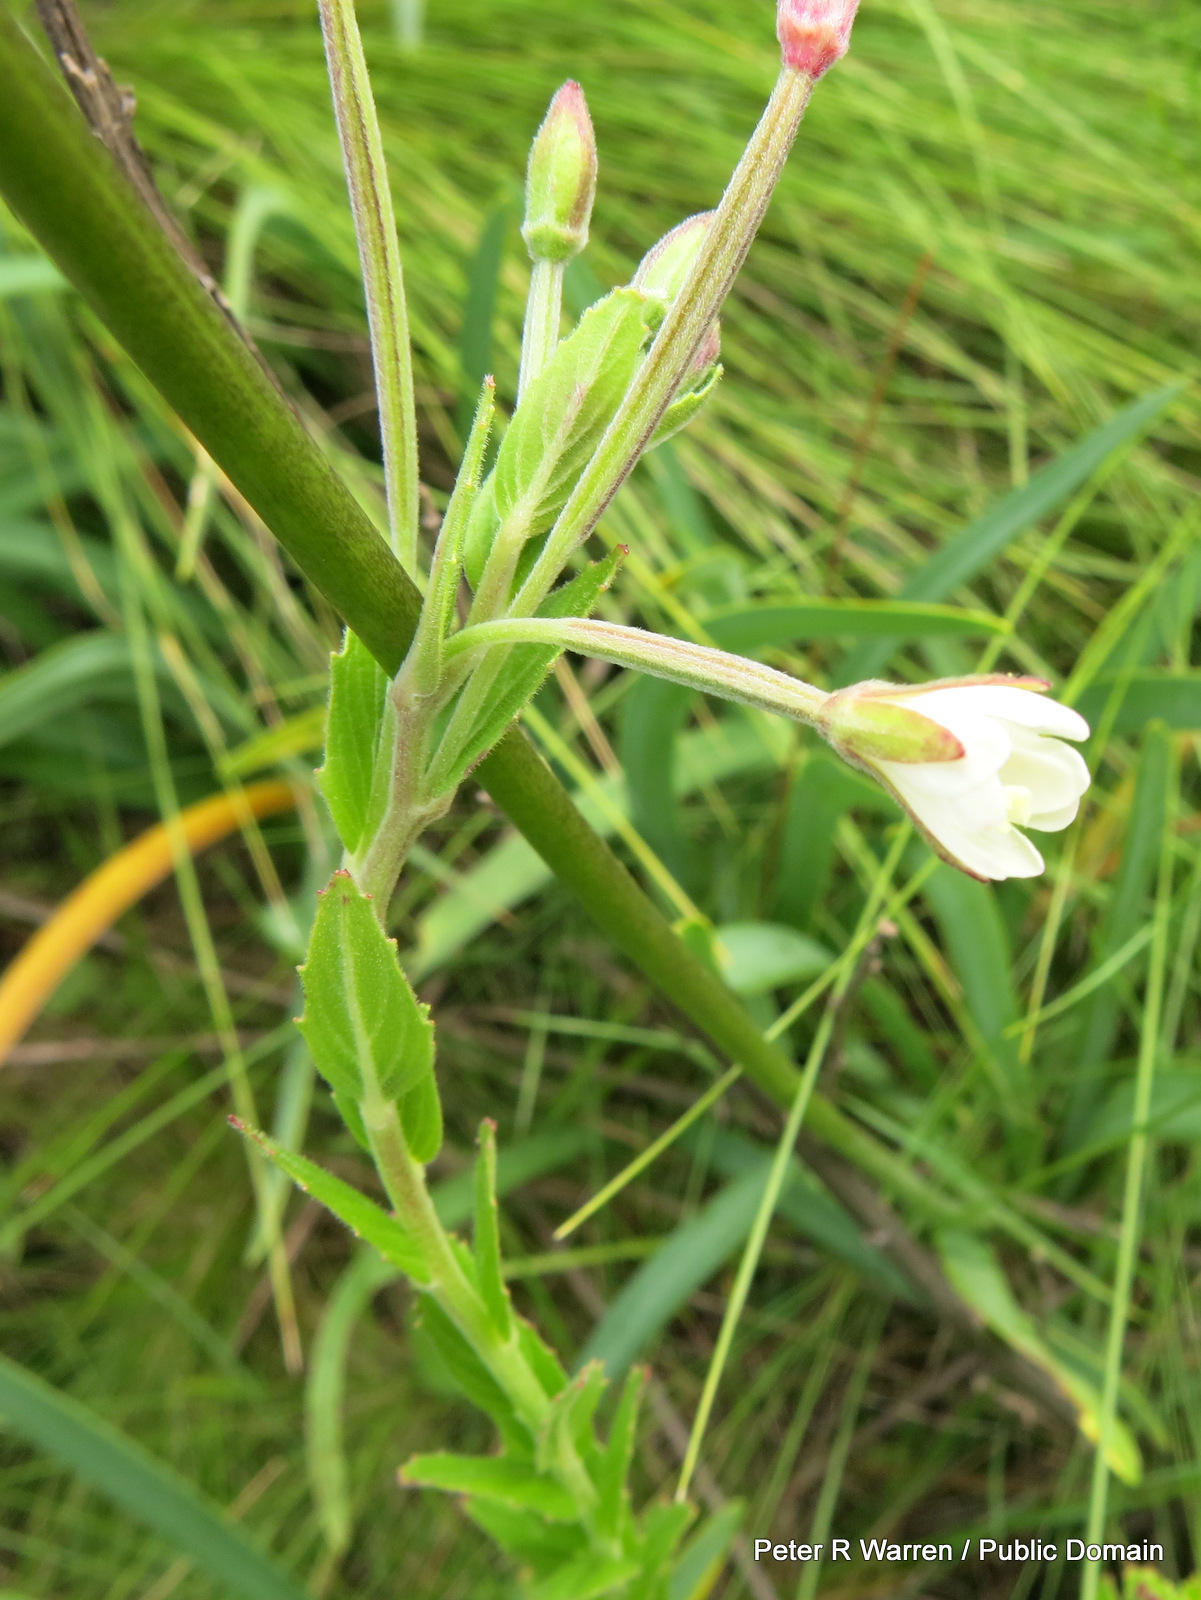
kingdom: Plantae
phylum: Tracheophyta
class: Magnoliopsida
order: Myrtales
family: Onagraceae
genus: Epilobium
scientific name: Epilobium capense
